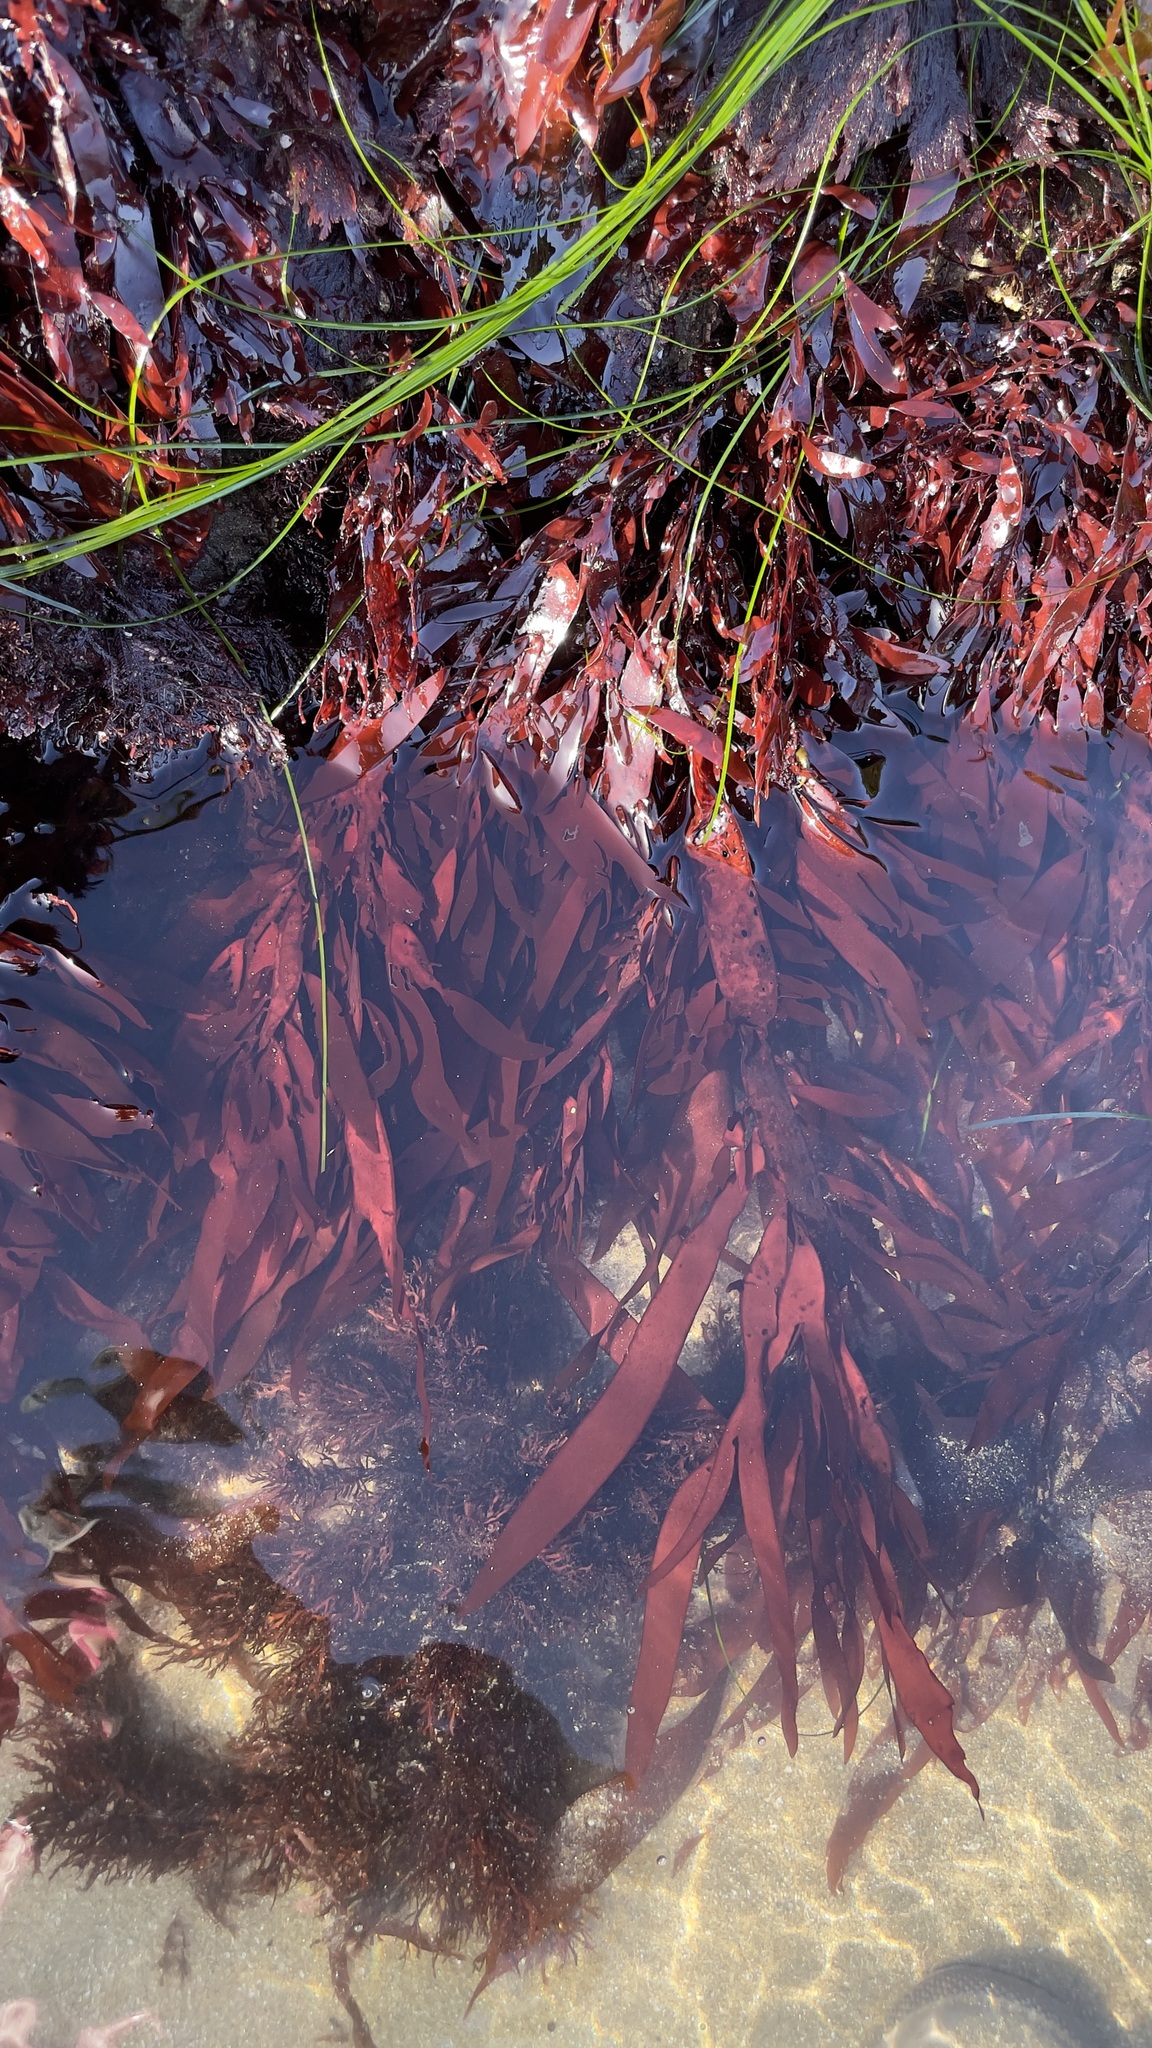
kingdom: Plantae
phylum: Rhodophyta
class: Florideophyceae
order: Halymeniales
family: Halymeniaceae
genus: Grateloupia
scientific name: Grateloupia Prionitis sternbergii
